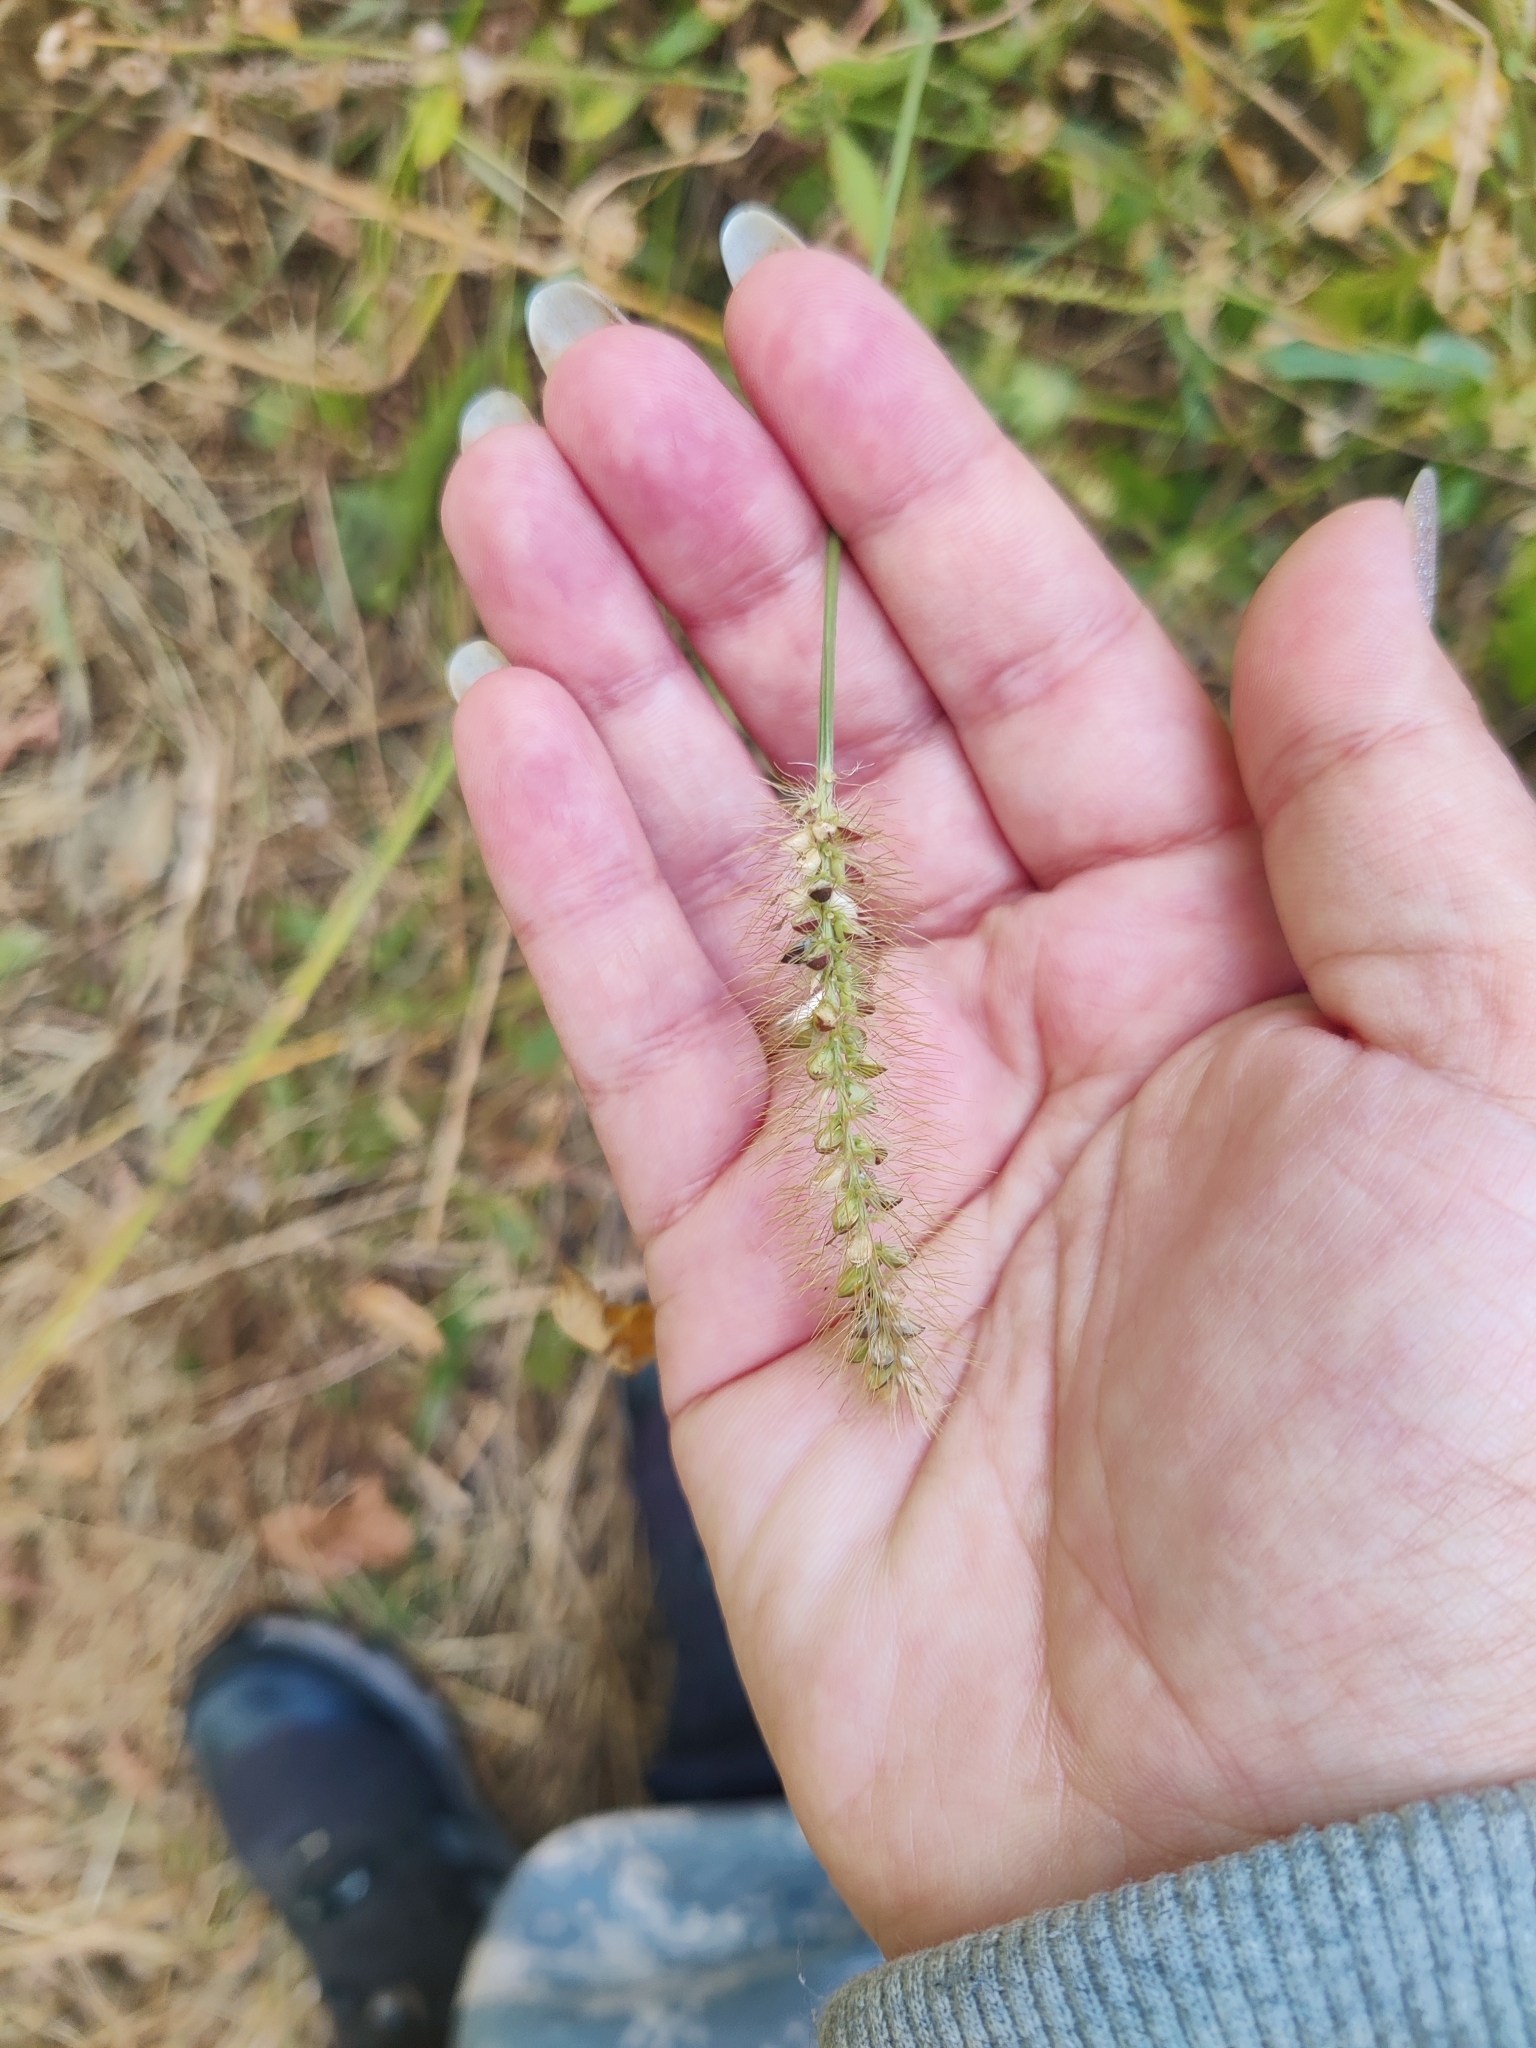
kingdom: Plantae
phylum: Tracheophyta
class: Liliopsida
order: Poales
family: Poaceae
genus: Setaria
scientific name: Setaria pumila
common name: Yellow bristle-grass
